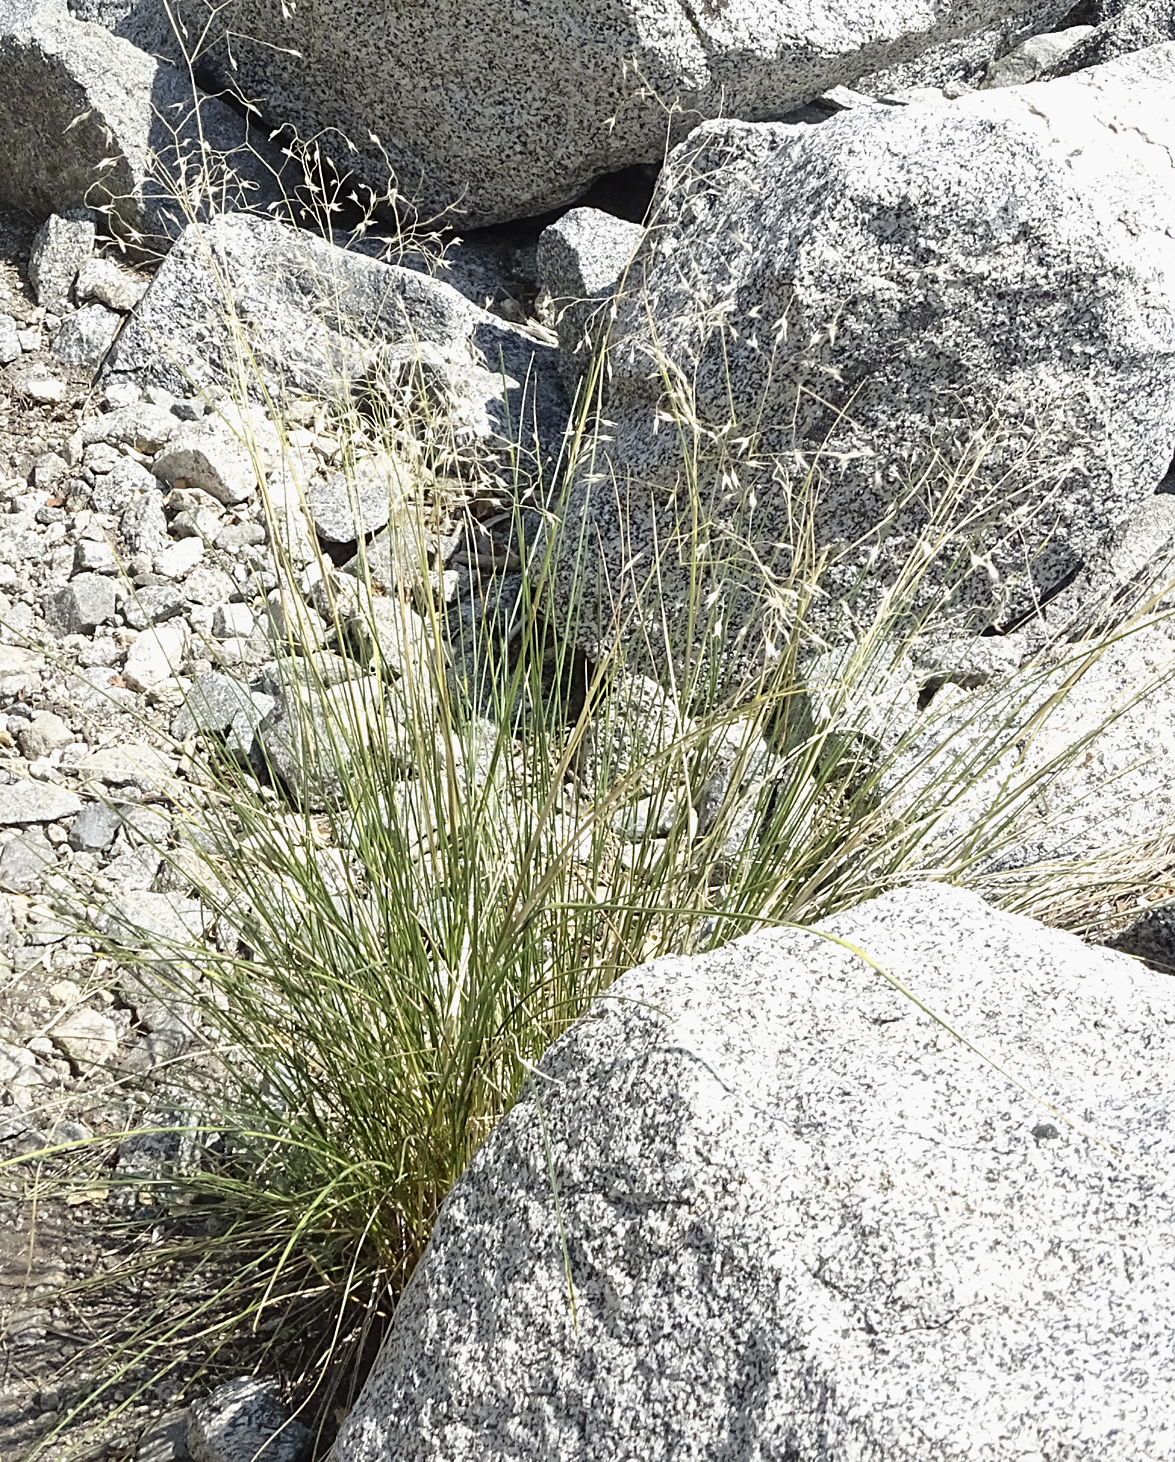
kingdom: Plantae
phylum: Tracheophyta
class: Liliopsida
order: Poales
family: Poaceae
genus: Eriocoma
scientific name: Eriocoma hymenoides
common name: Indian mountain ricegrass
